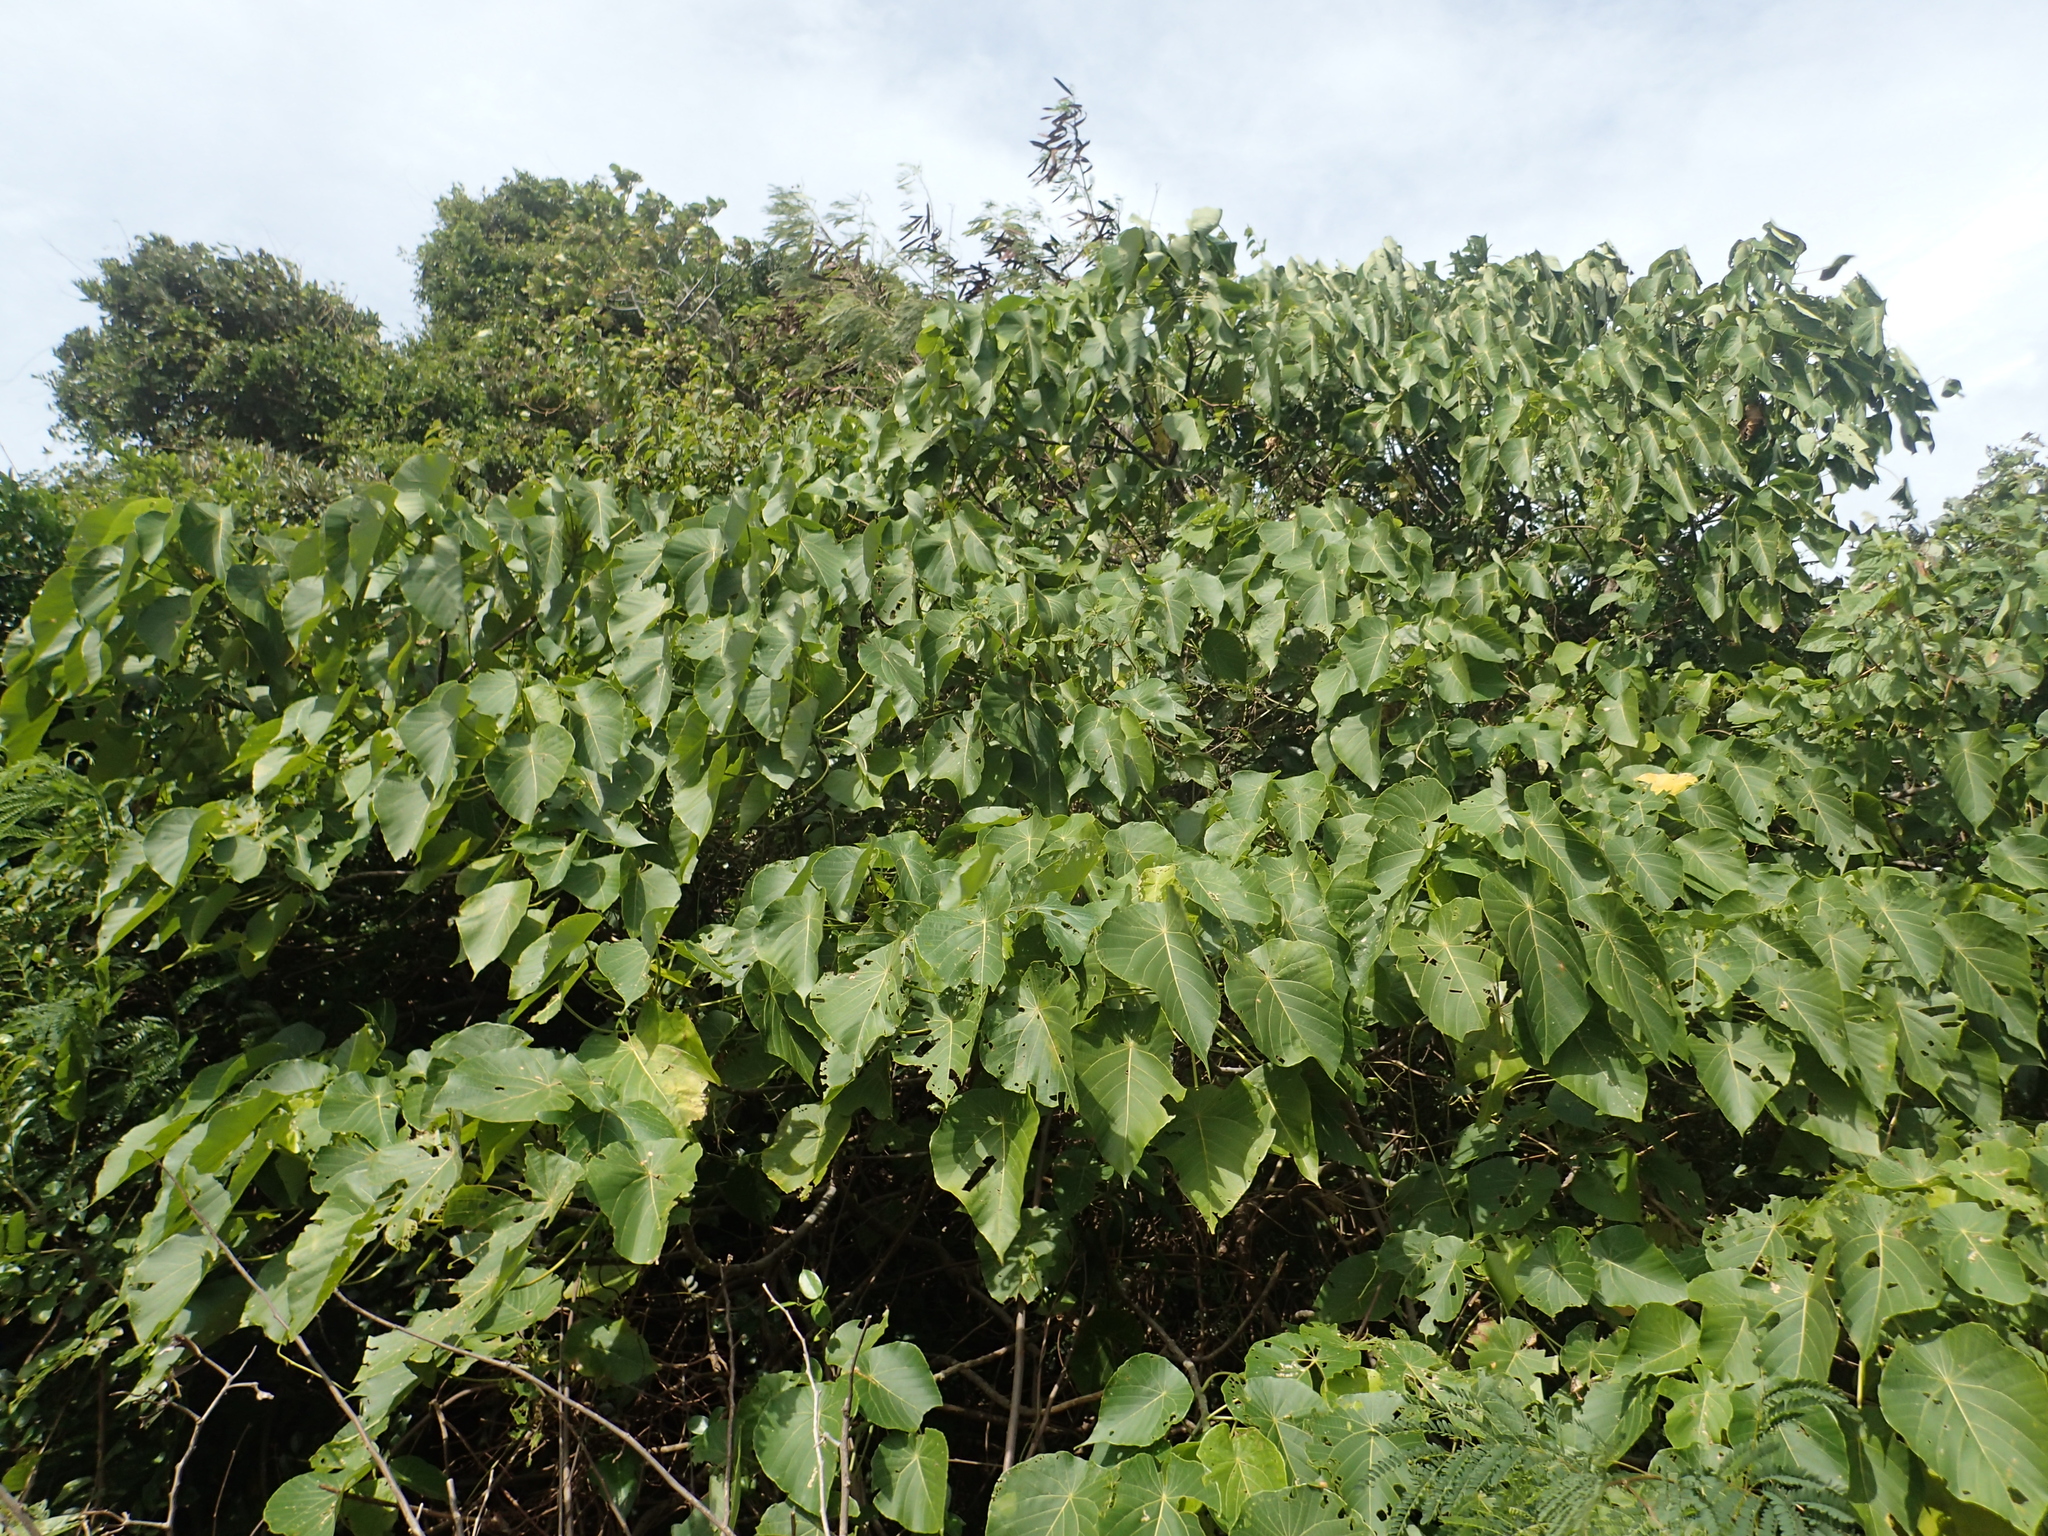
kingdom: Plantae
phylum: Tracheophyta
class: Magnoliopsida
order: Malpighiales
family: Euphorbiaceae
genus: Macaranga
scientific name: Macaranga tanarius
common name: Parasol leaf tree
